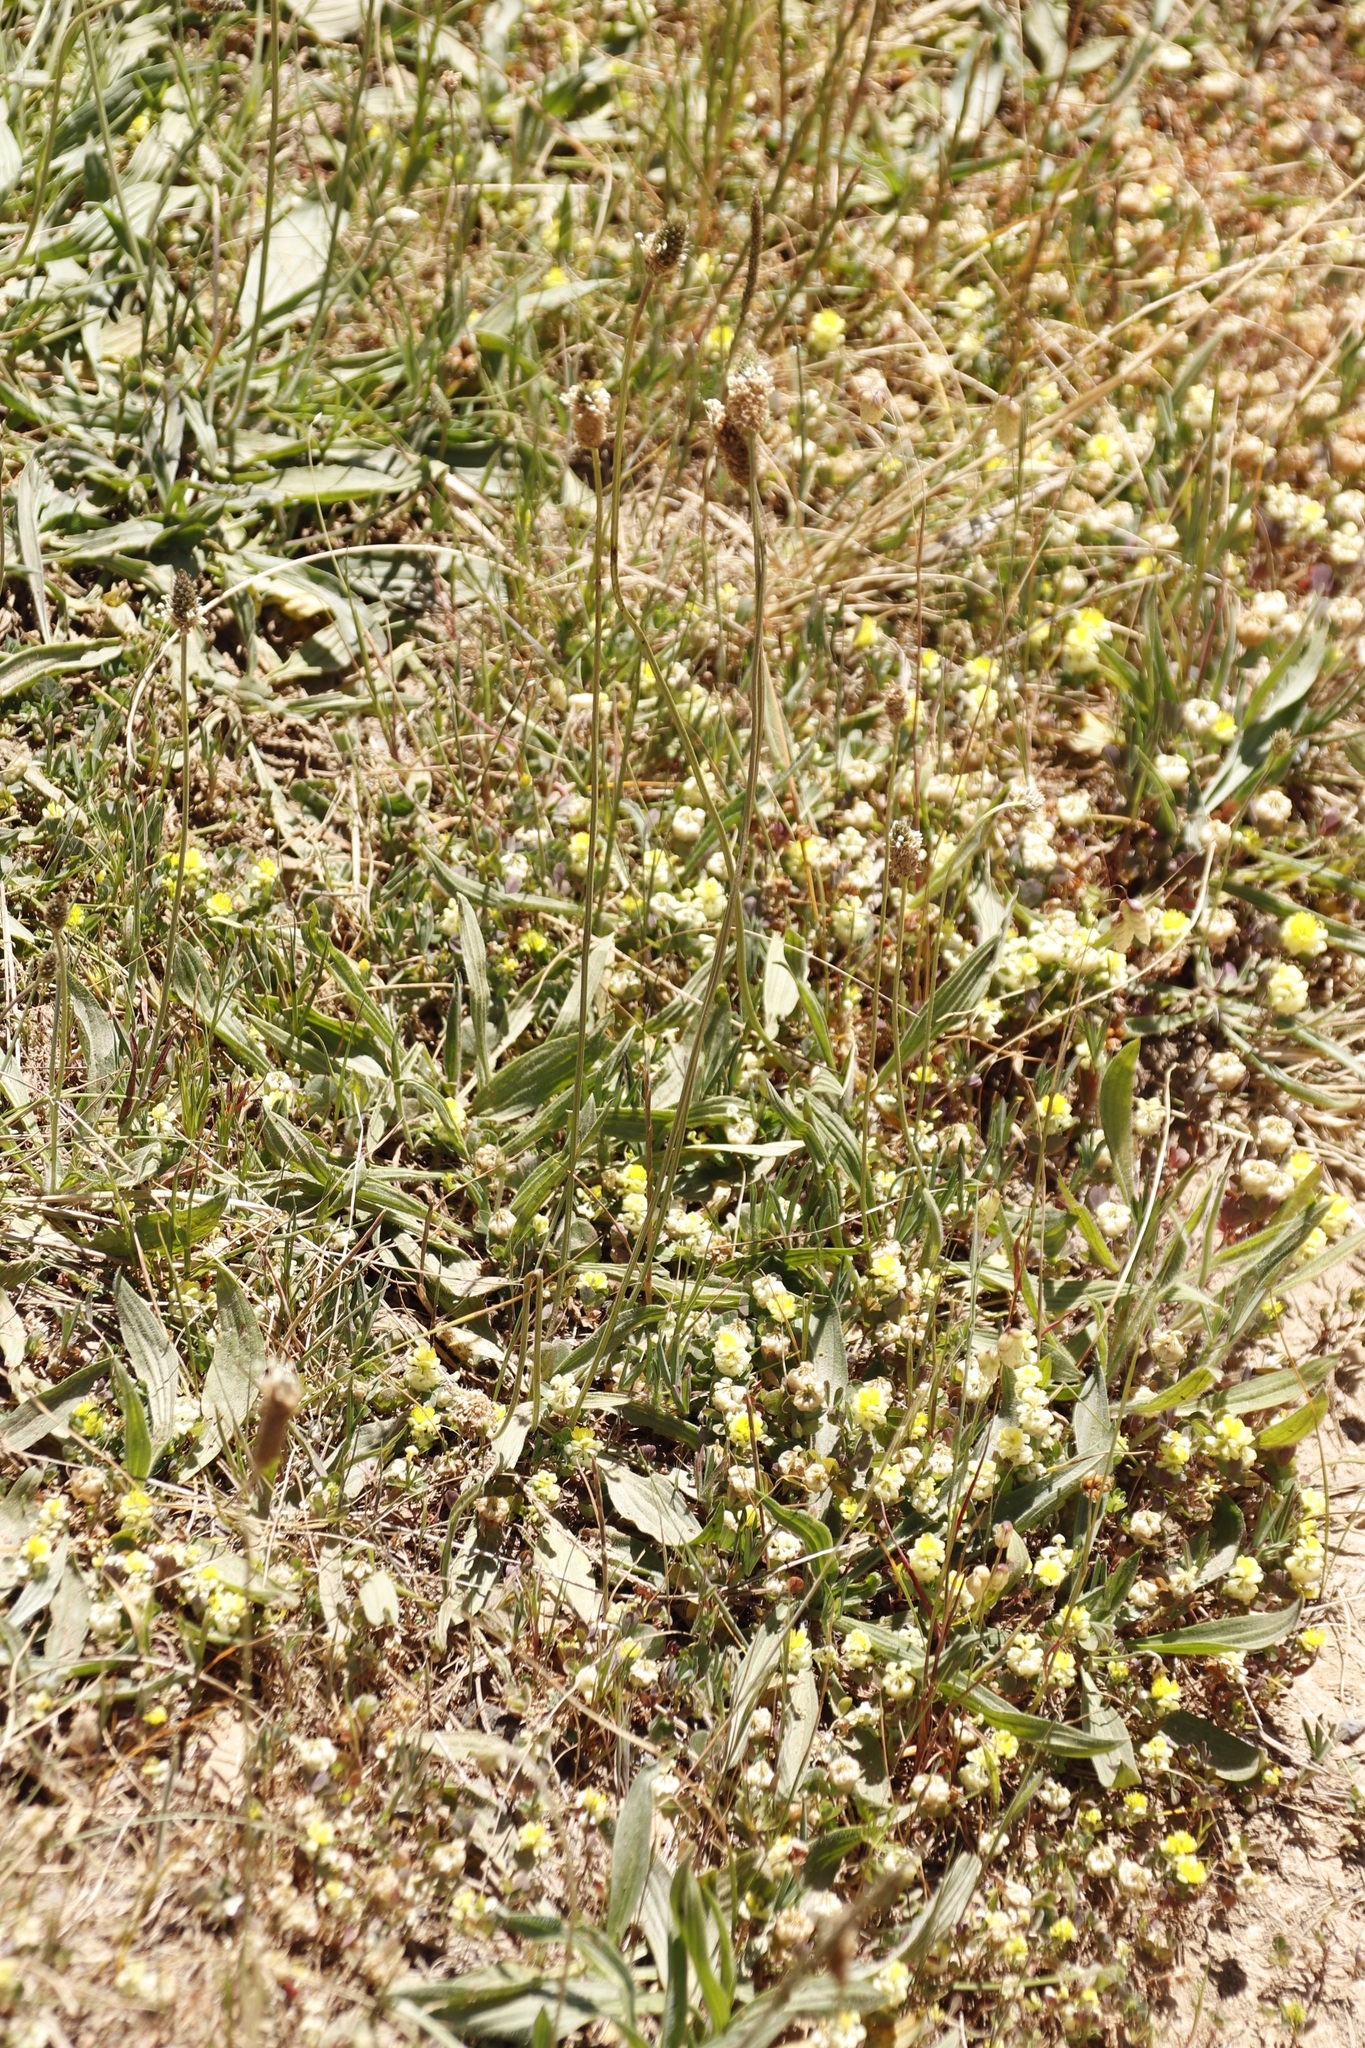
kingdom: Plantae
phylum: Tracheophyta
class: Magnoliopsida
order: Lamiales
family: Plantaginaceae
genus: Plantago
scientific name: Plantago lanceolata
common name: Ribwort plantain
